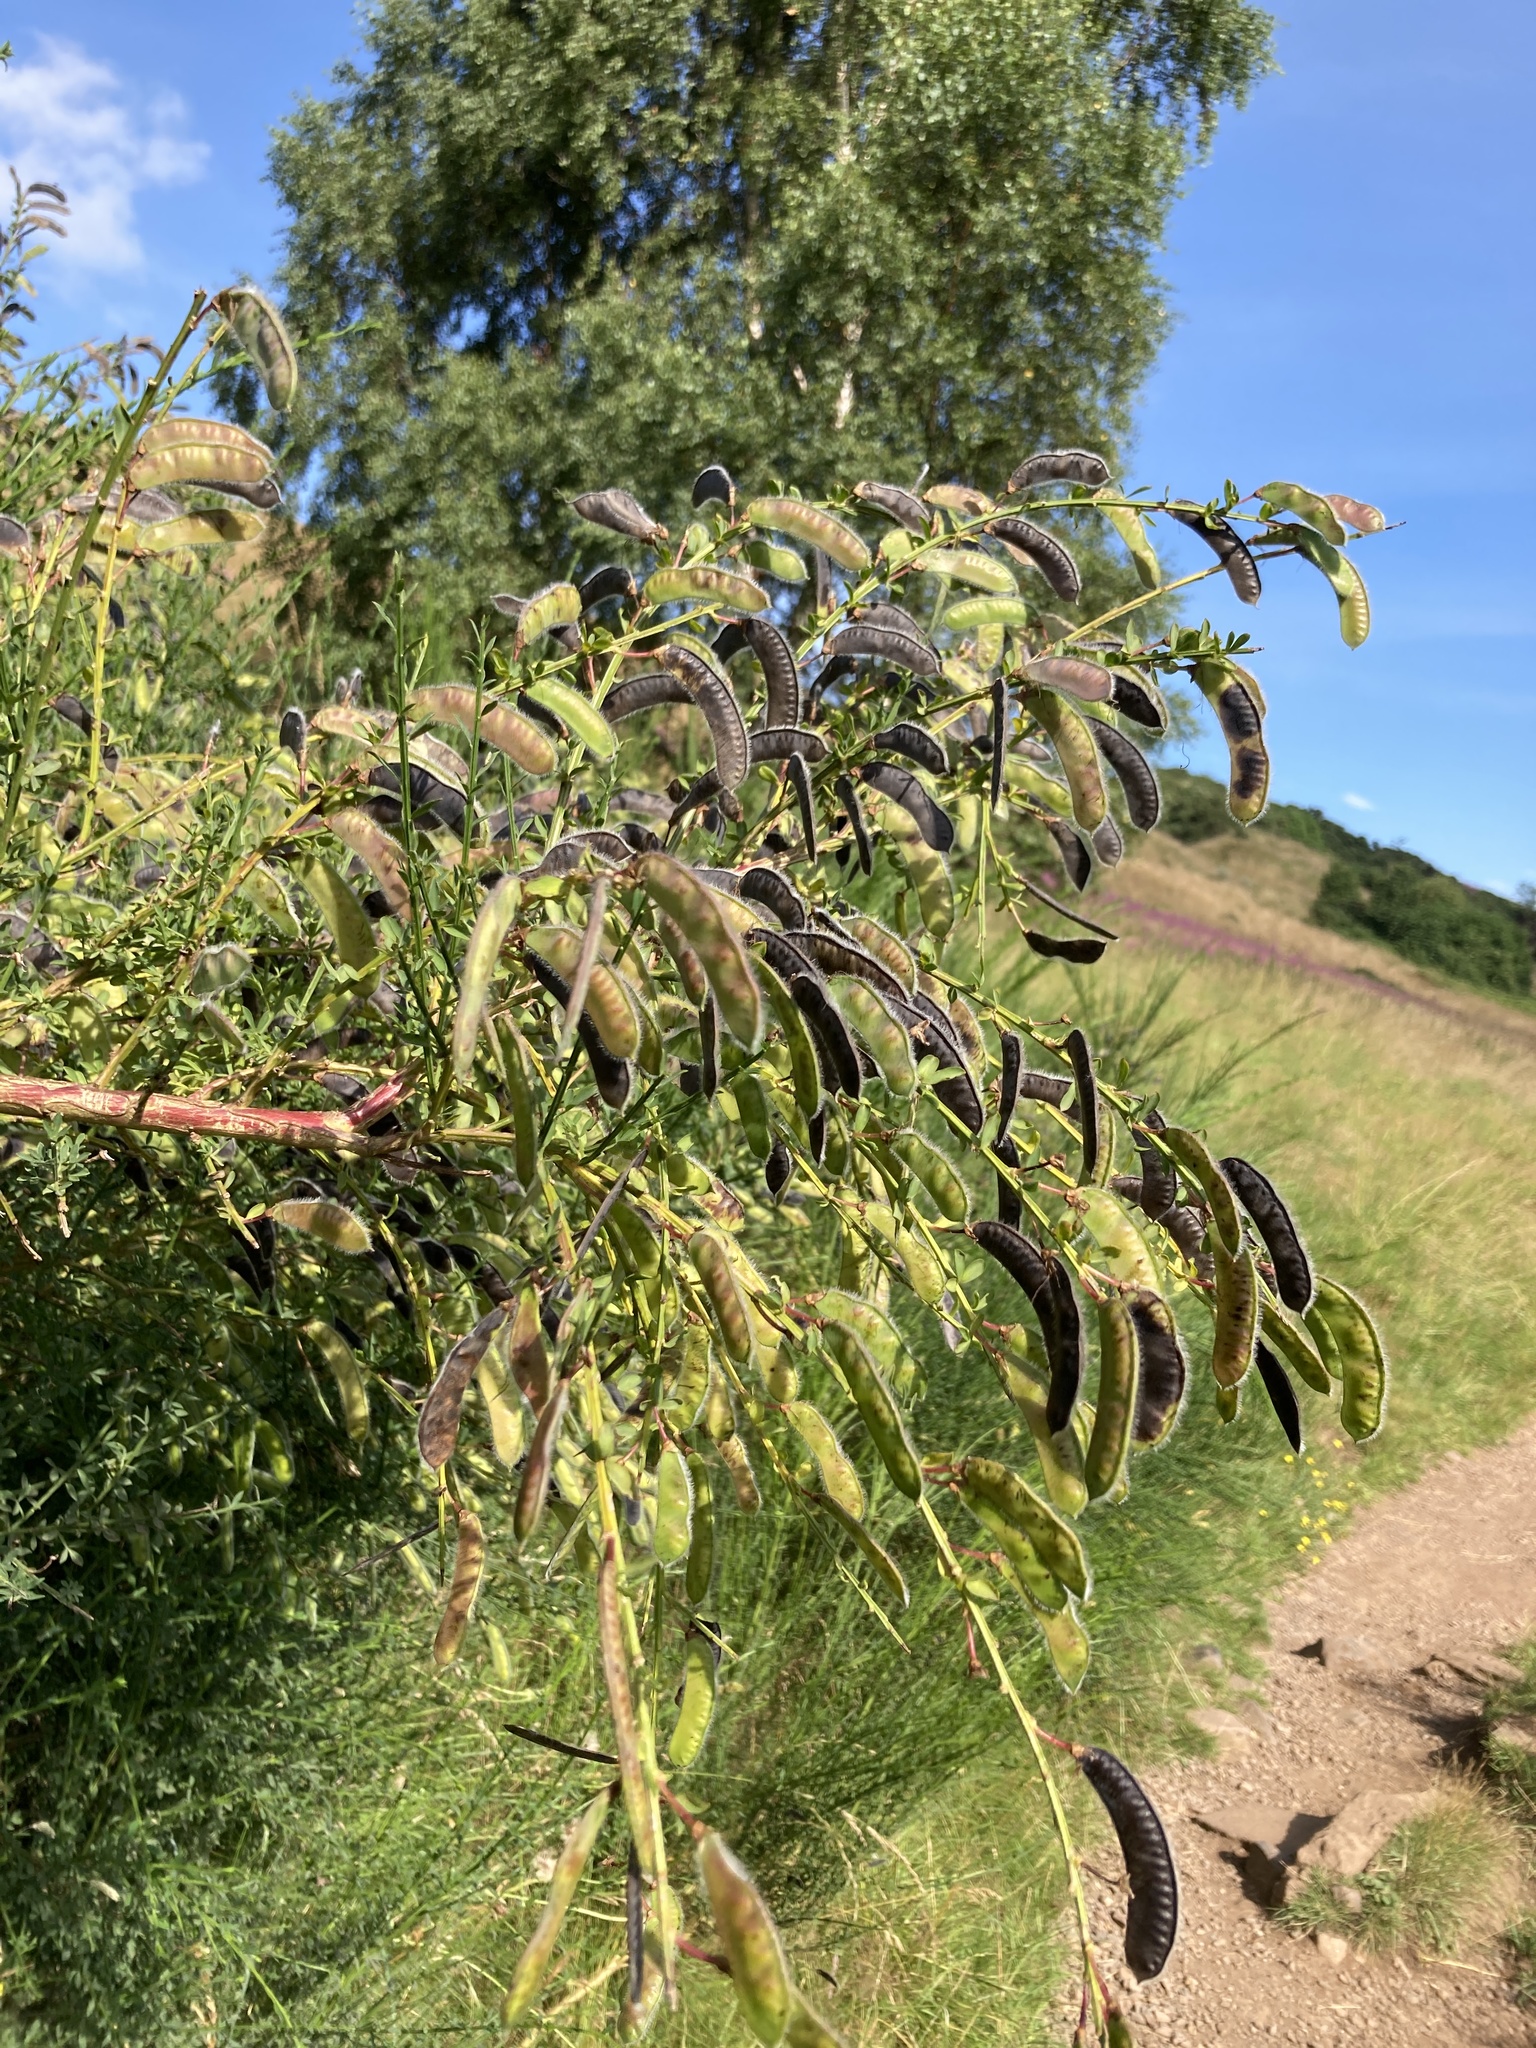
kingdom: Plantae
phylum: Tracheophyta
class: Magnoliopsida
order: Fabales
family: Fabaceae
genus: Cytisus
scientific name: Cytisus scoparius
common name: Scotch broom
